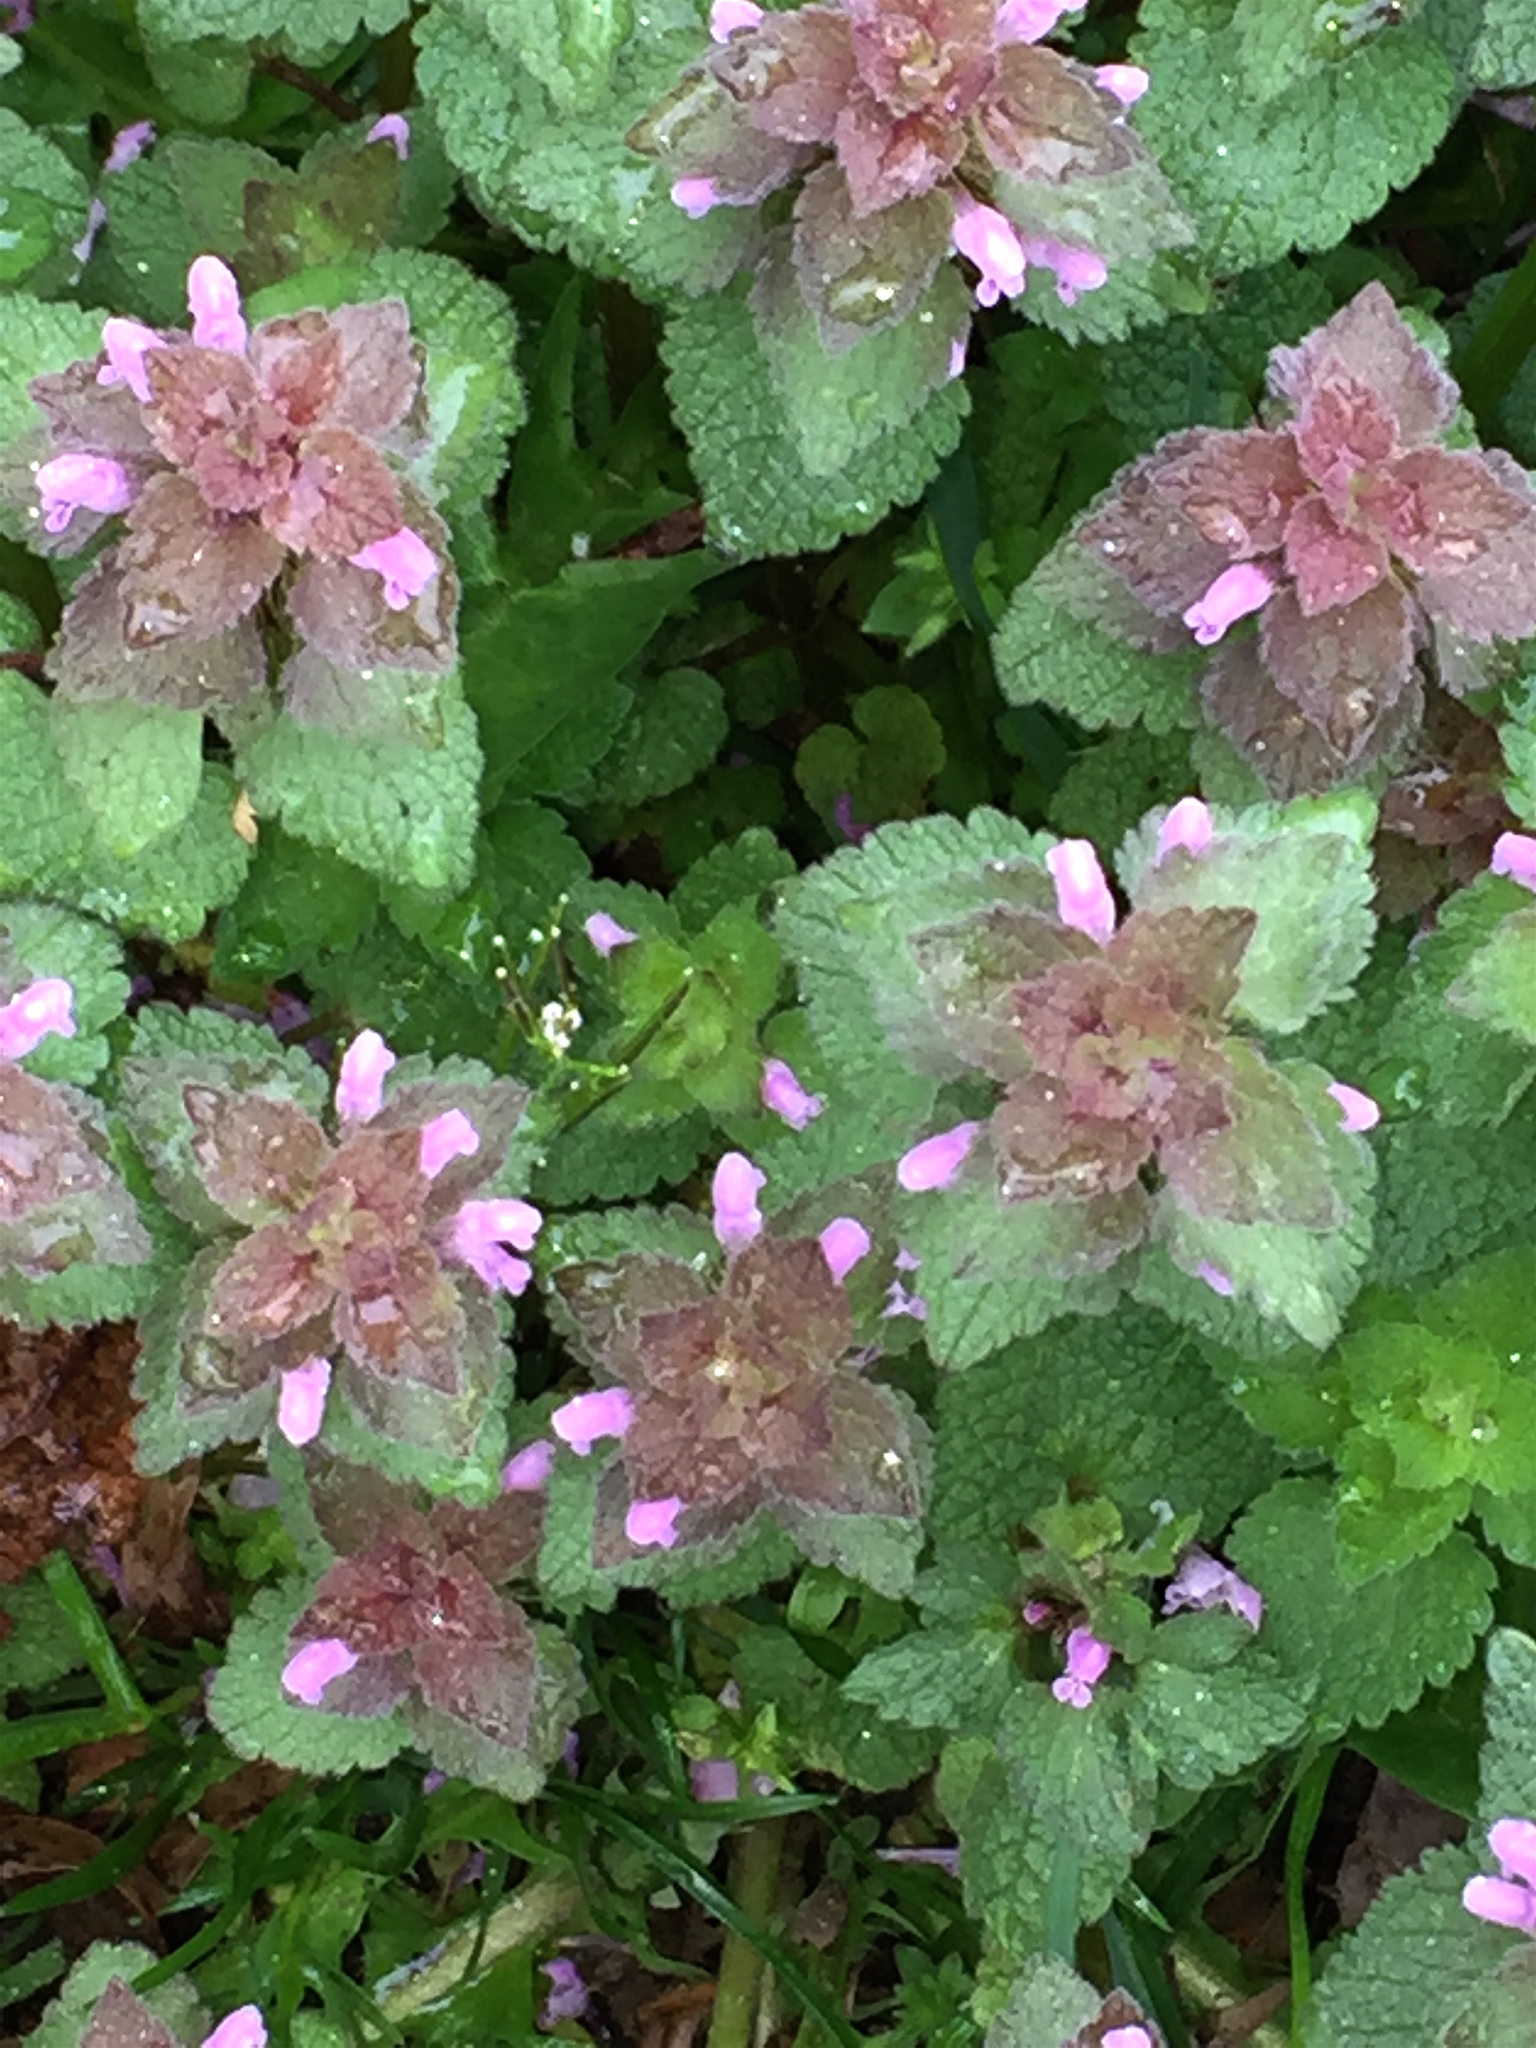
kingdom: Plantae
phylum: Tracheophyta
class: Magnoliopsida
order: Lamiales
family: Lamiaceae
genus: Lamium
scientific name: Lamium purpureum
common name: Red dead-nettle
